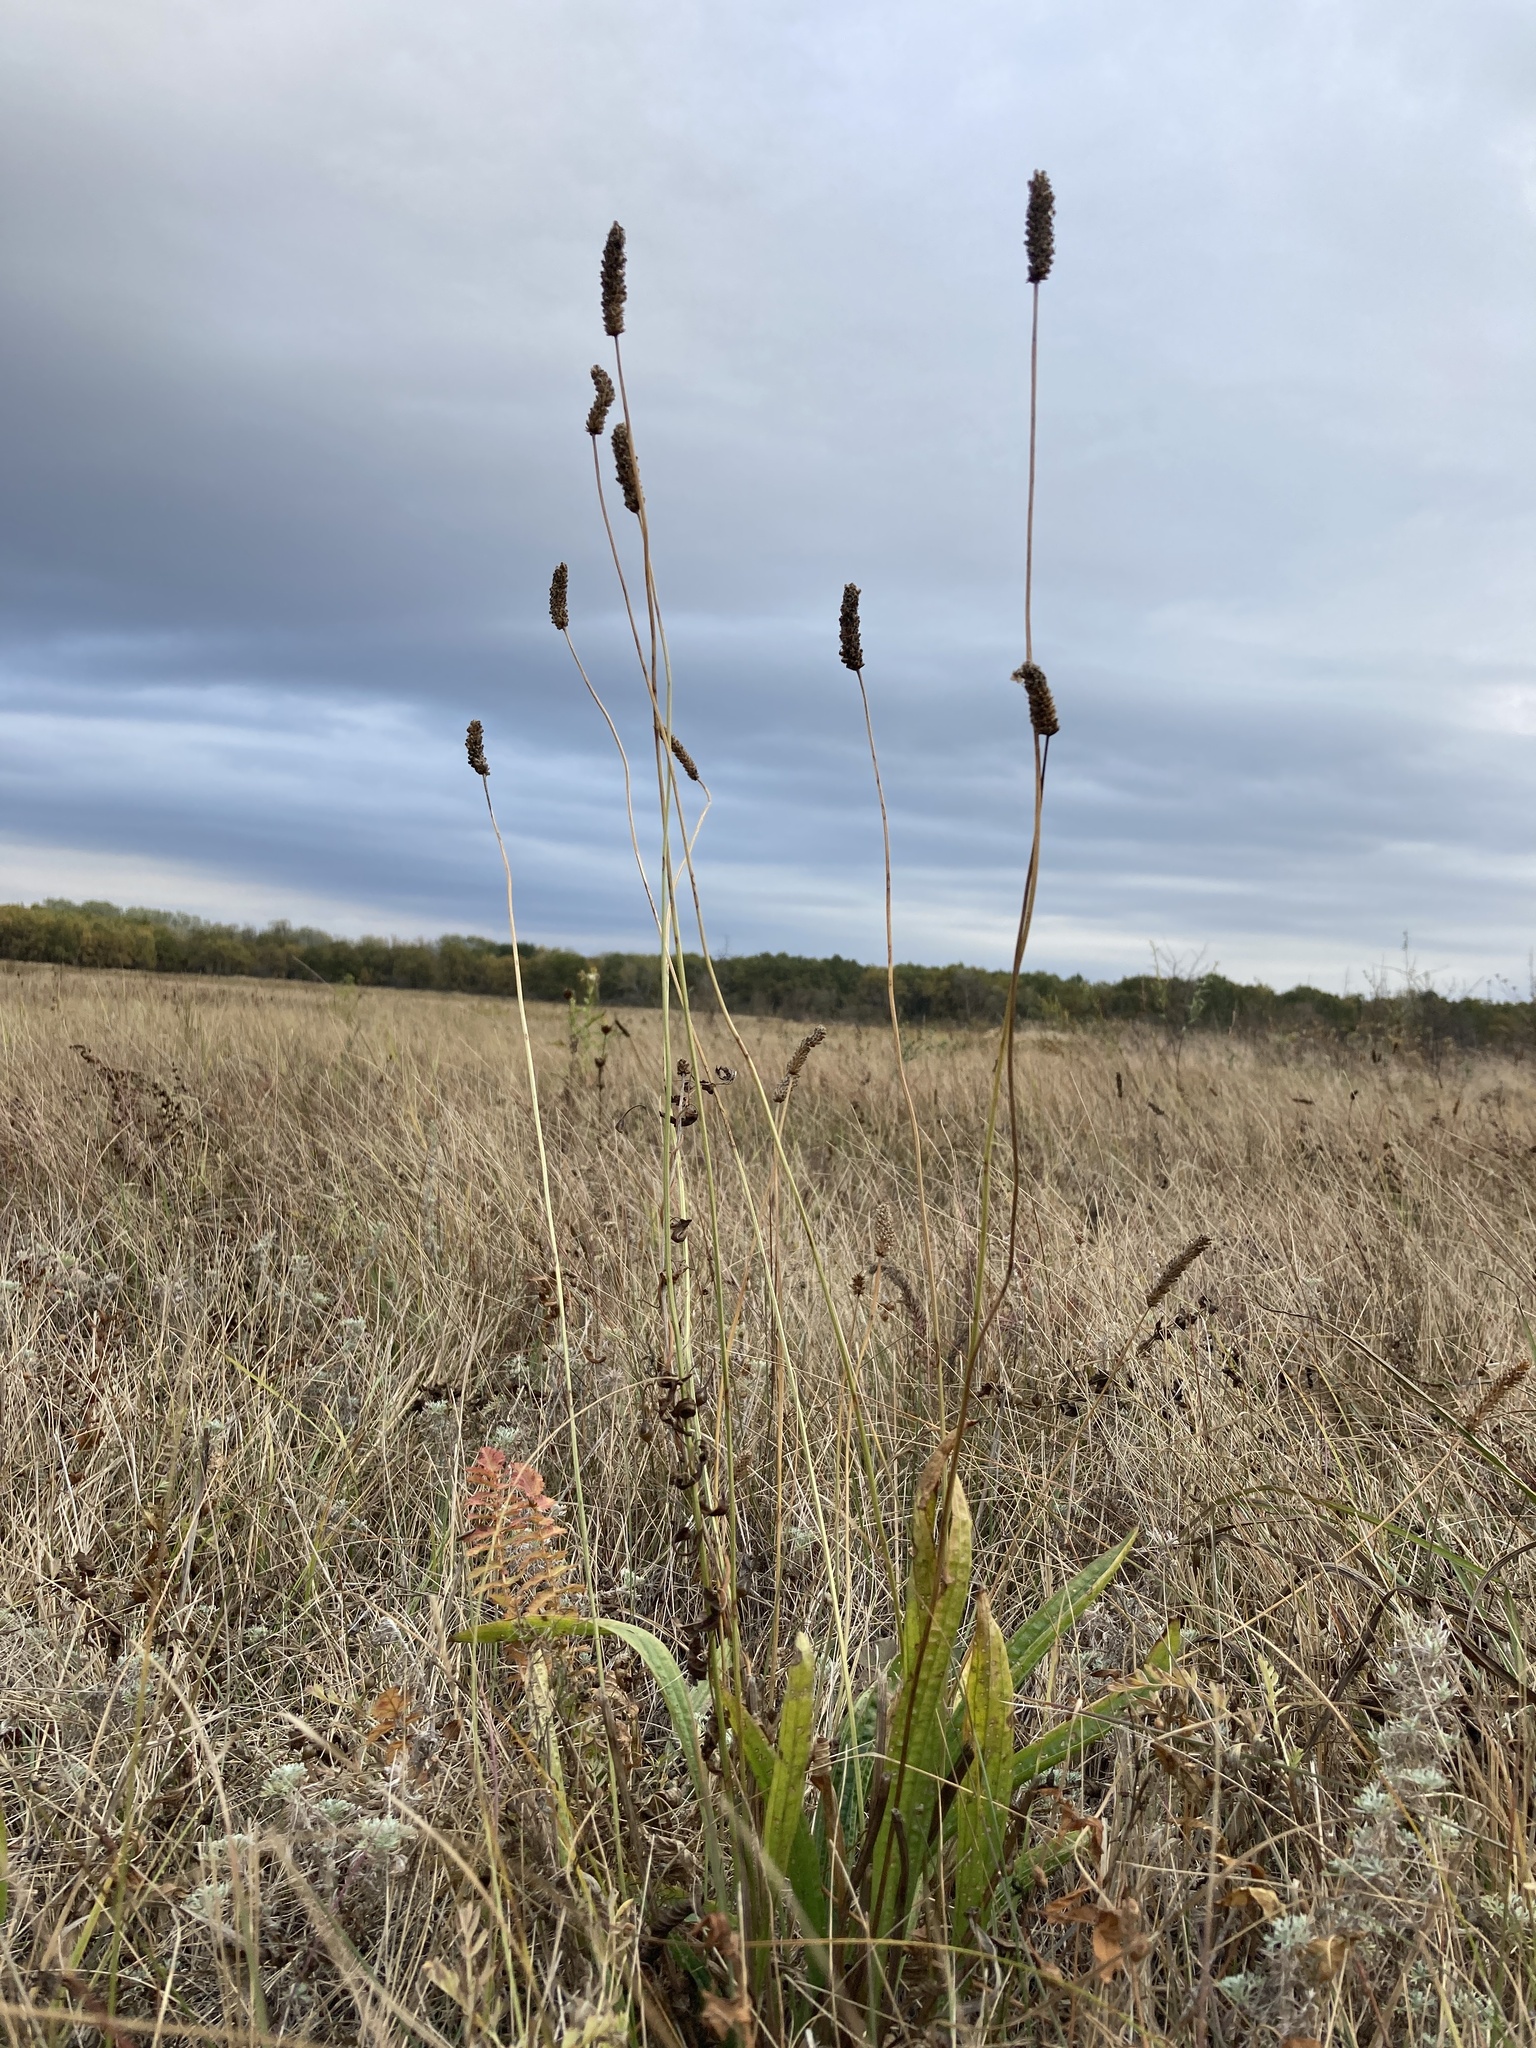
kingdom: Plantae
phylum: Tracheophyta
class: Magnoliopsida
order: Lamiales
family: Plantaginaceae
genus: Plantago
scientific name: Plantago lanceolata
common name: Ribwort plantain
